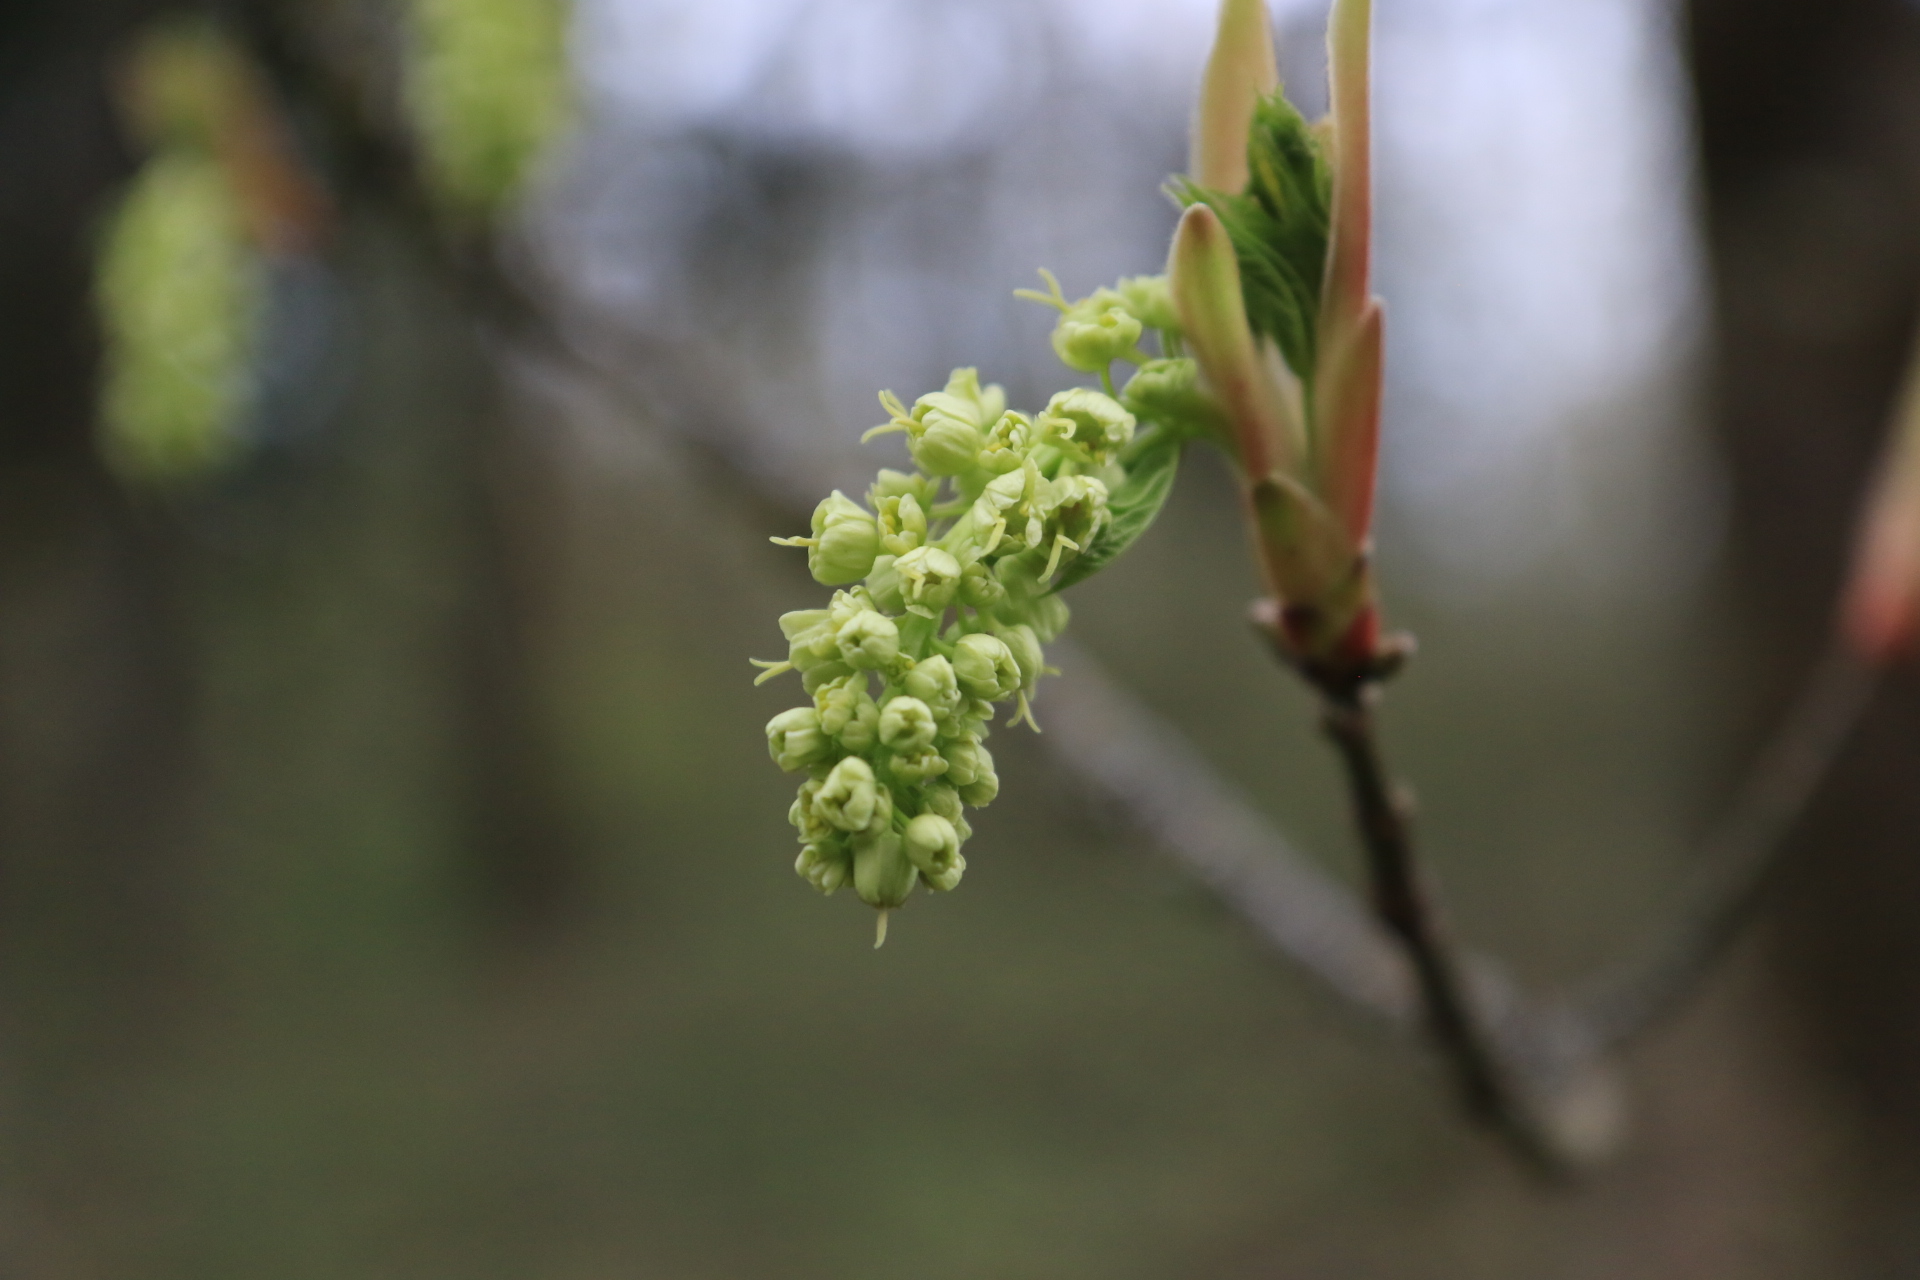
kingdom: Plantae
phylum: Tracheophyta
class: Magnoliopsida
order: Sapindales
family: Sapindaceae
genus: Acer
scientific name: Acer macrophyllum
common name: Oregon maple
